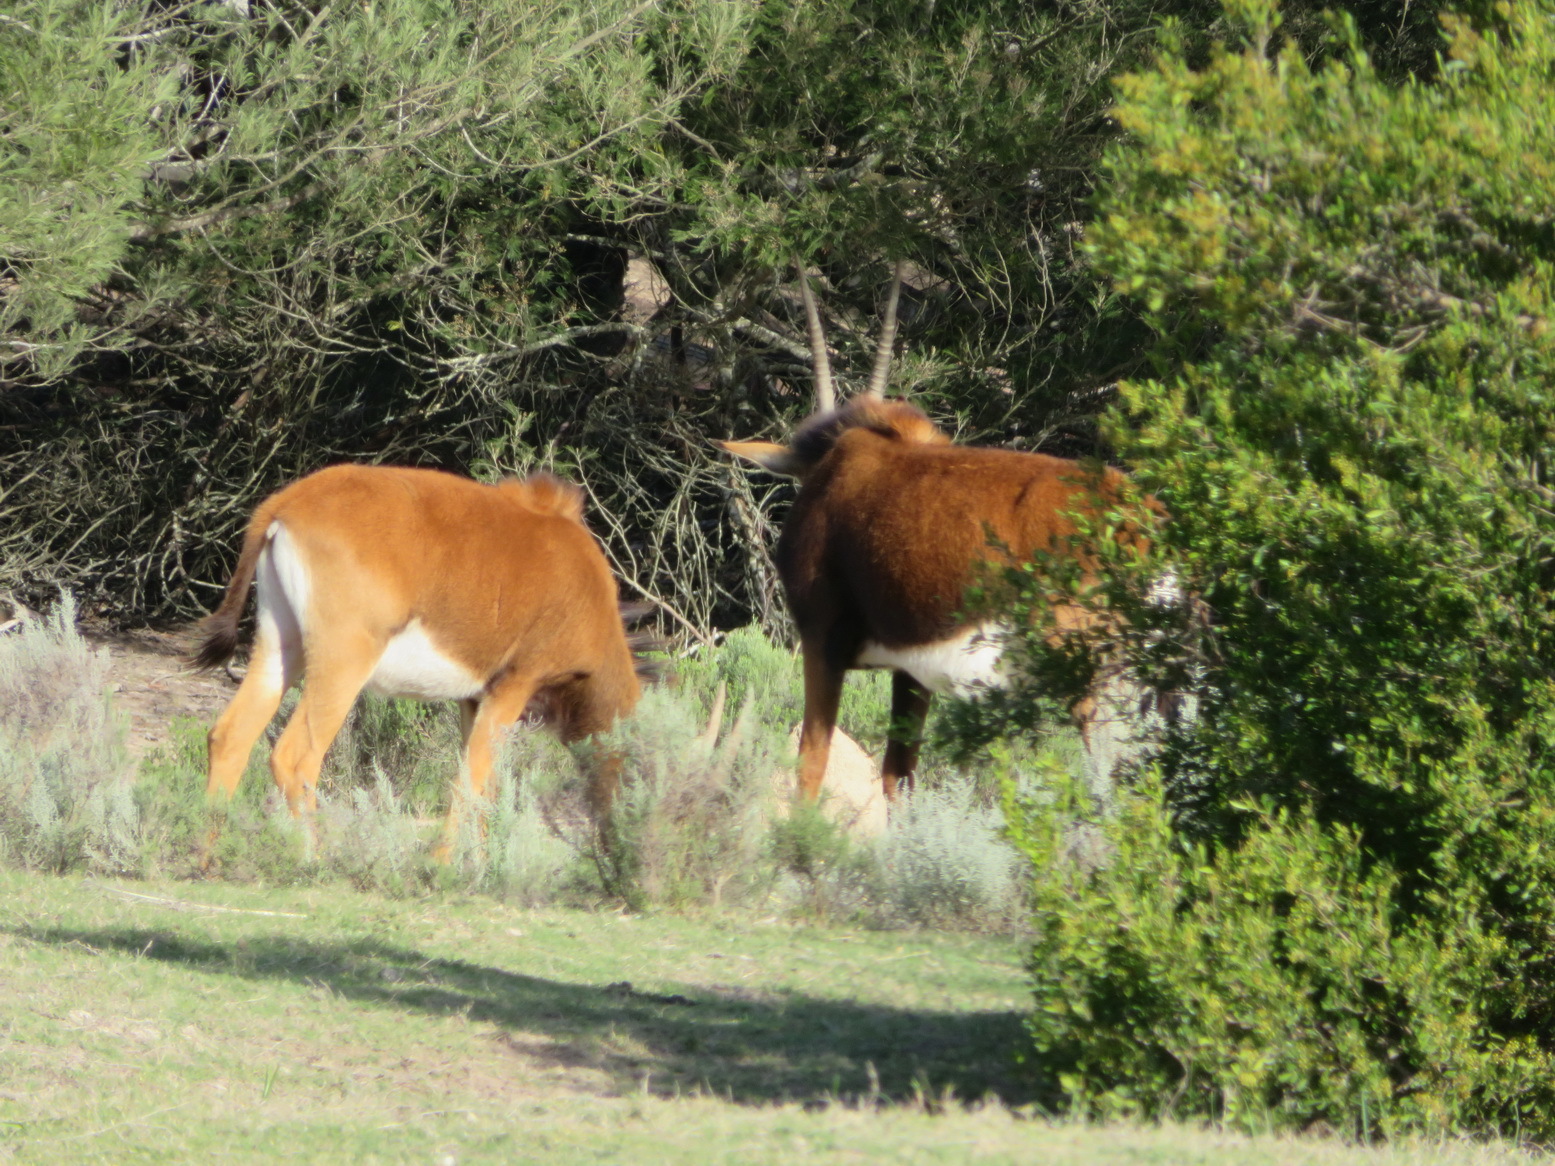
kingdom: Animalia
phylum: Chordata
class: Mammalia
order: Artiodactyla
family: Bovidae
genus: Hippotragus
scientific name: Hippotragus niger
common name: Sable antelope
